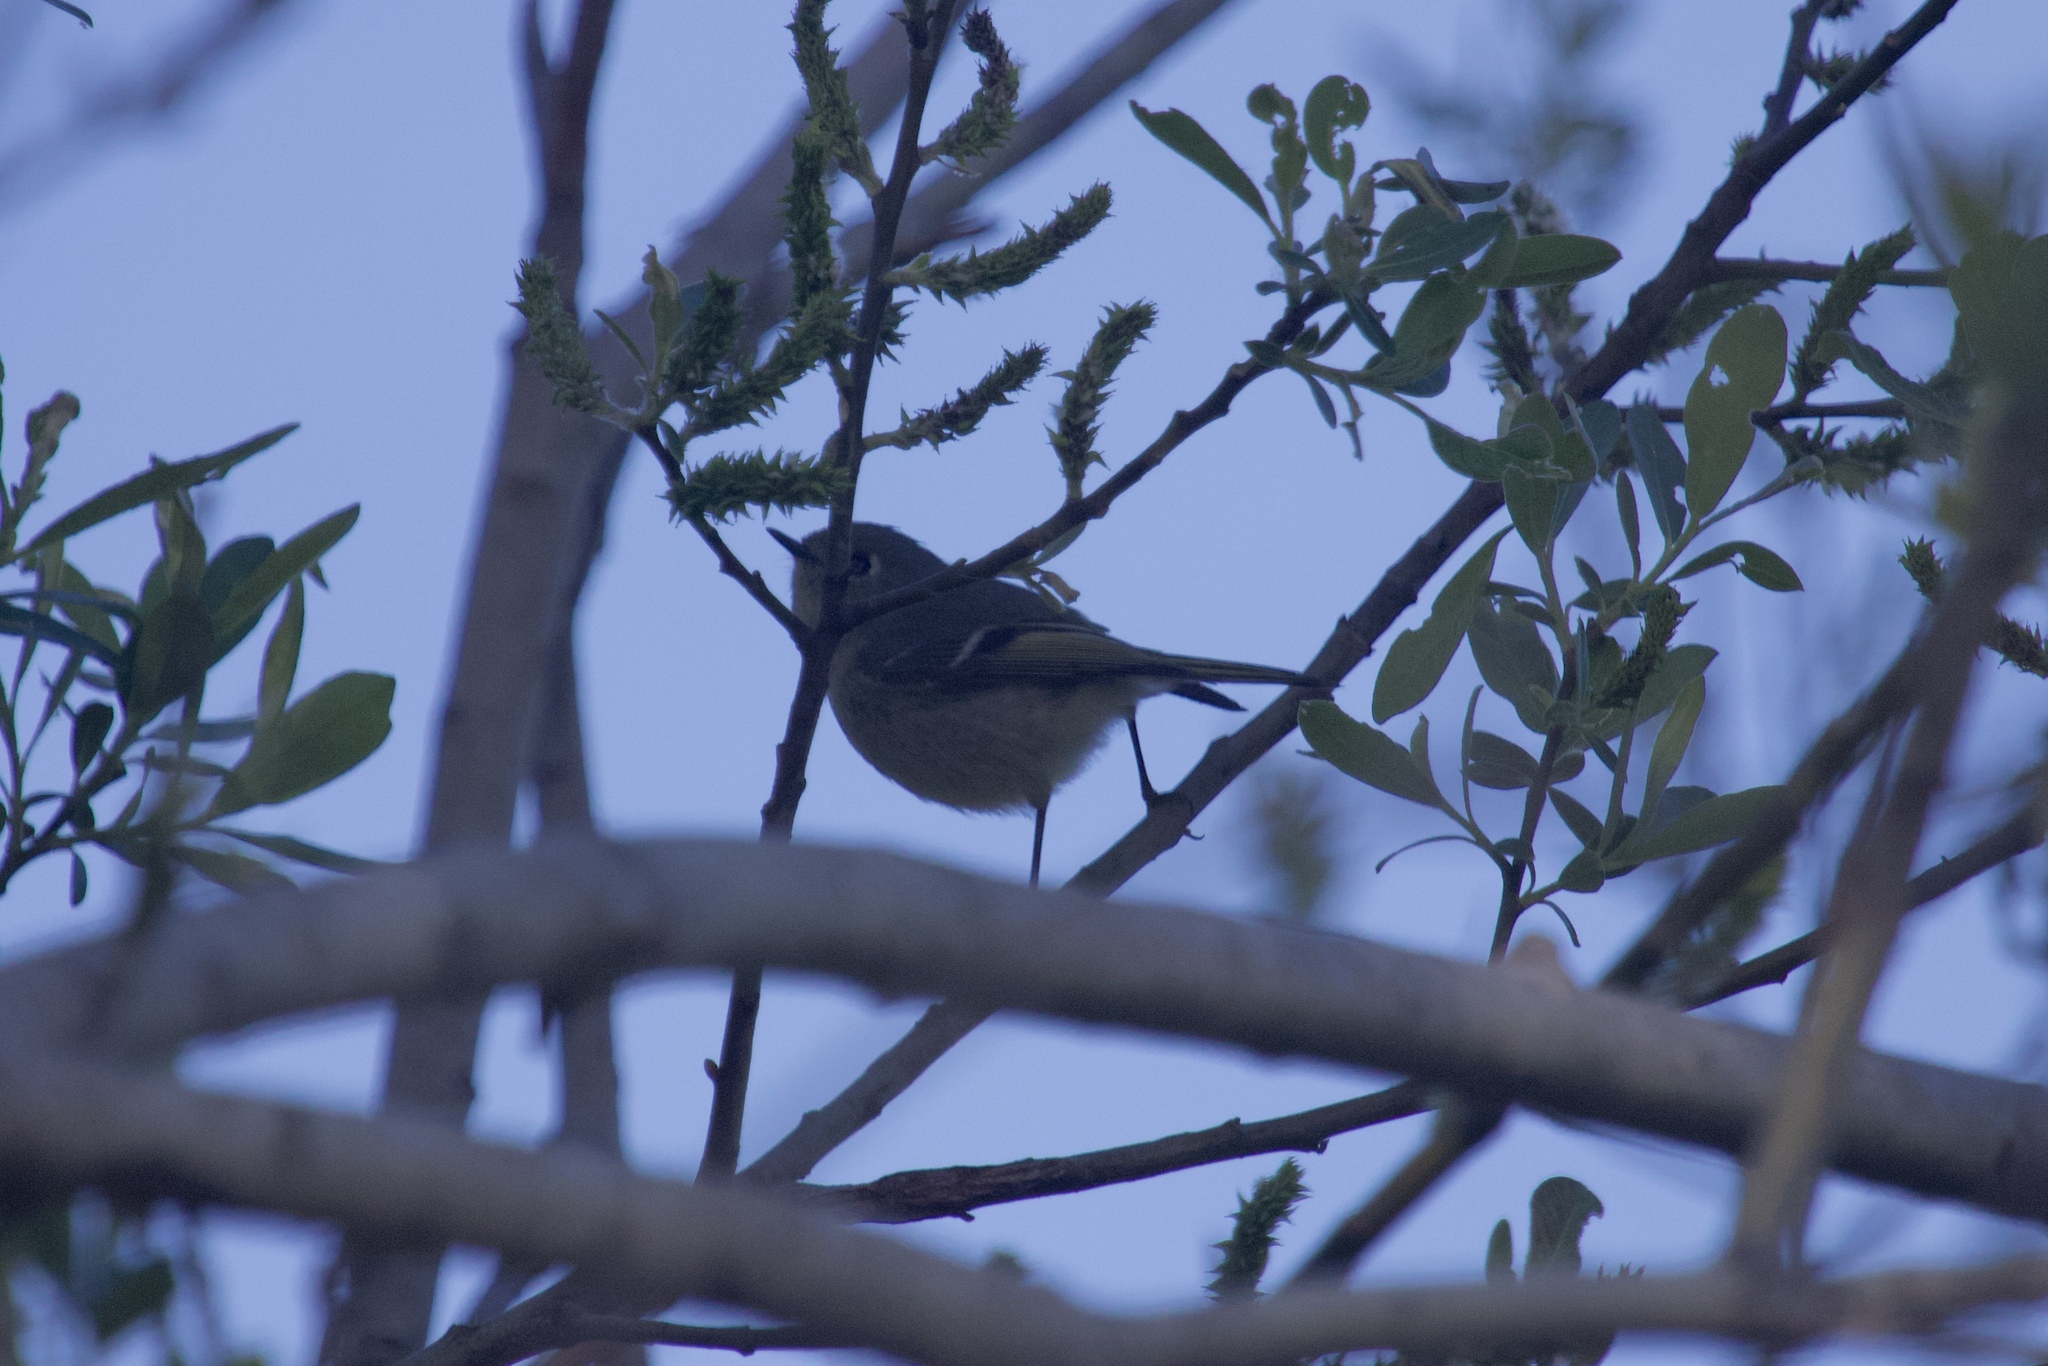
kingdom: Animalia
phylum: Chordata
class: Aves
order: Passeriformes
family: Regulidae
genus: Regulus
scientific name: Regulus calendula
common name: Ruby-crowned kinglet
